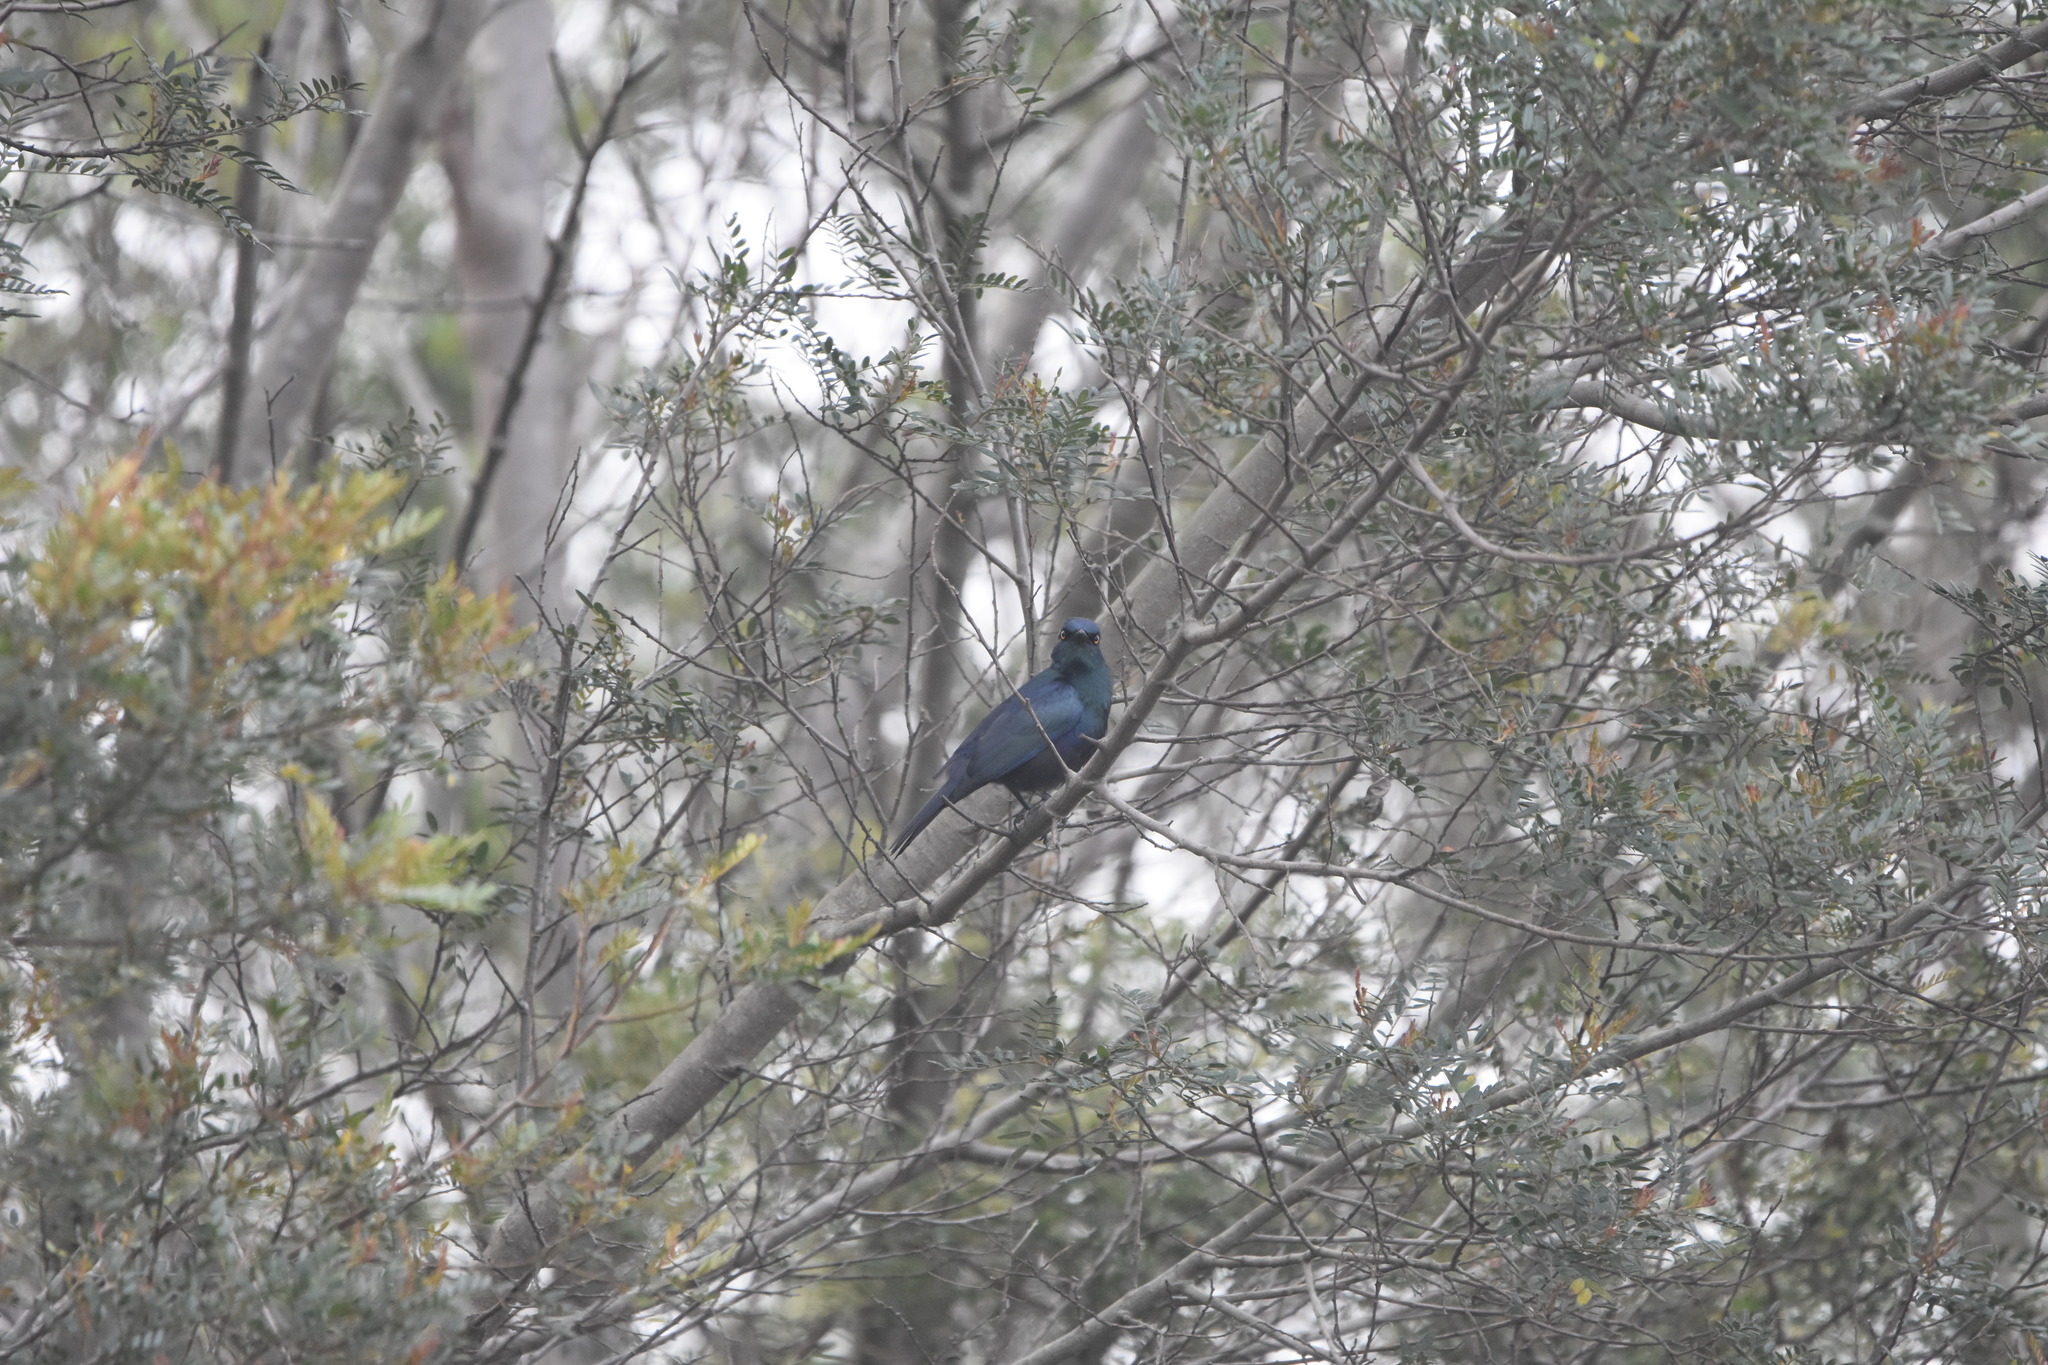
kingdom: Animalia
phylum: Chordata
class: Aves
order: Passeriformes
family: Sturnidae
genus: Notopholia
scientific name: Notopholia corrusca
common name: Black-bellied starling
